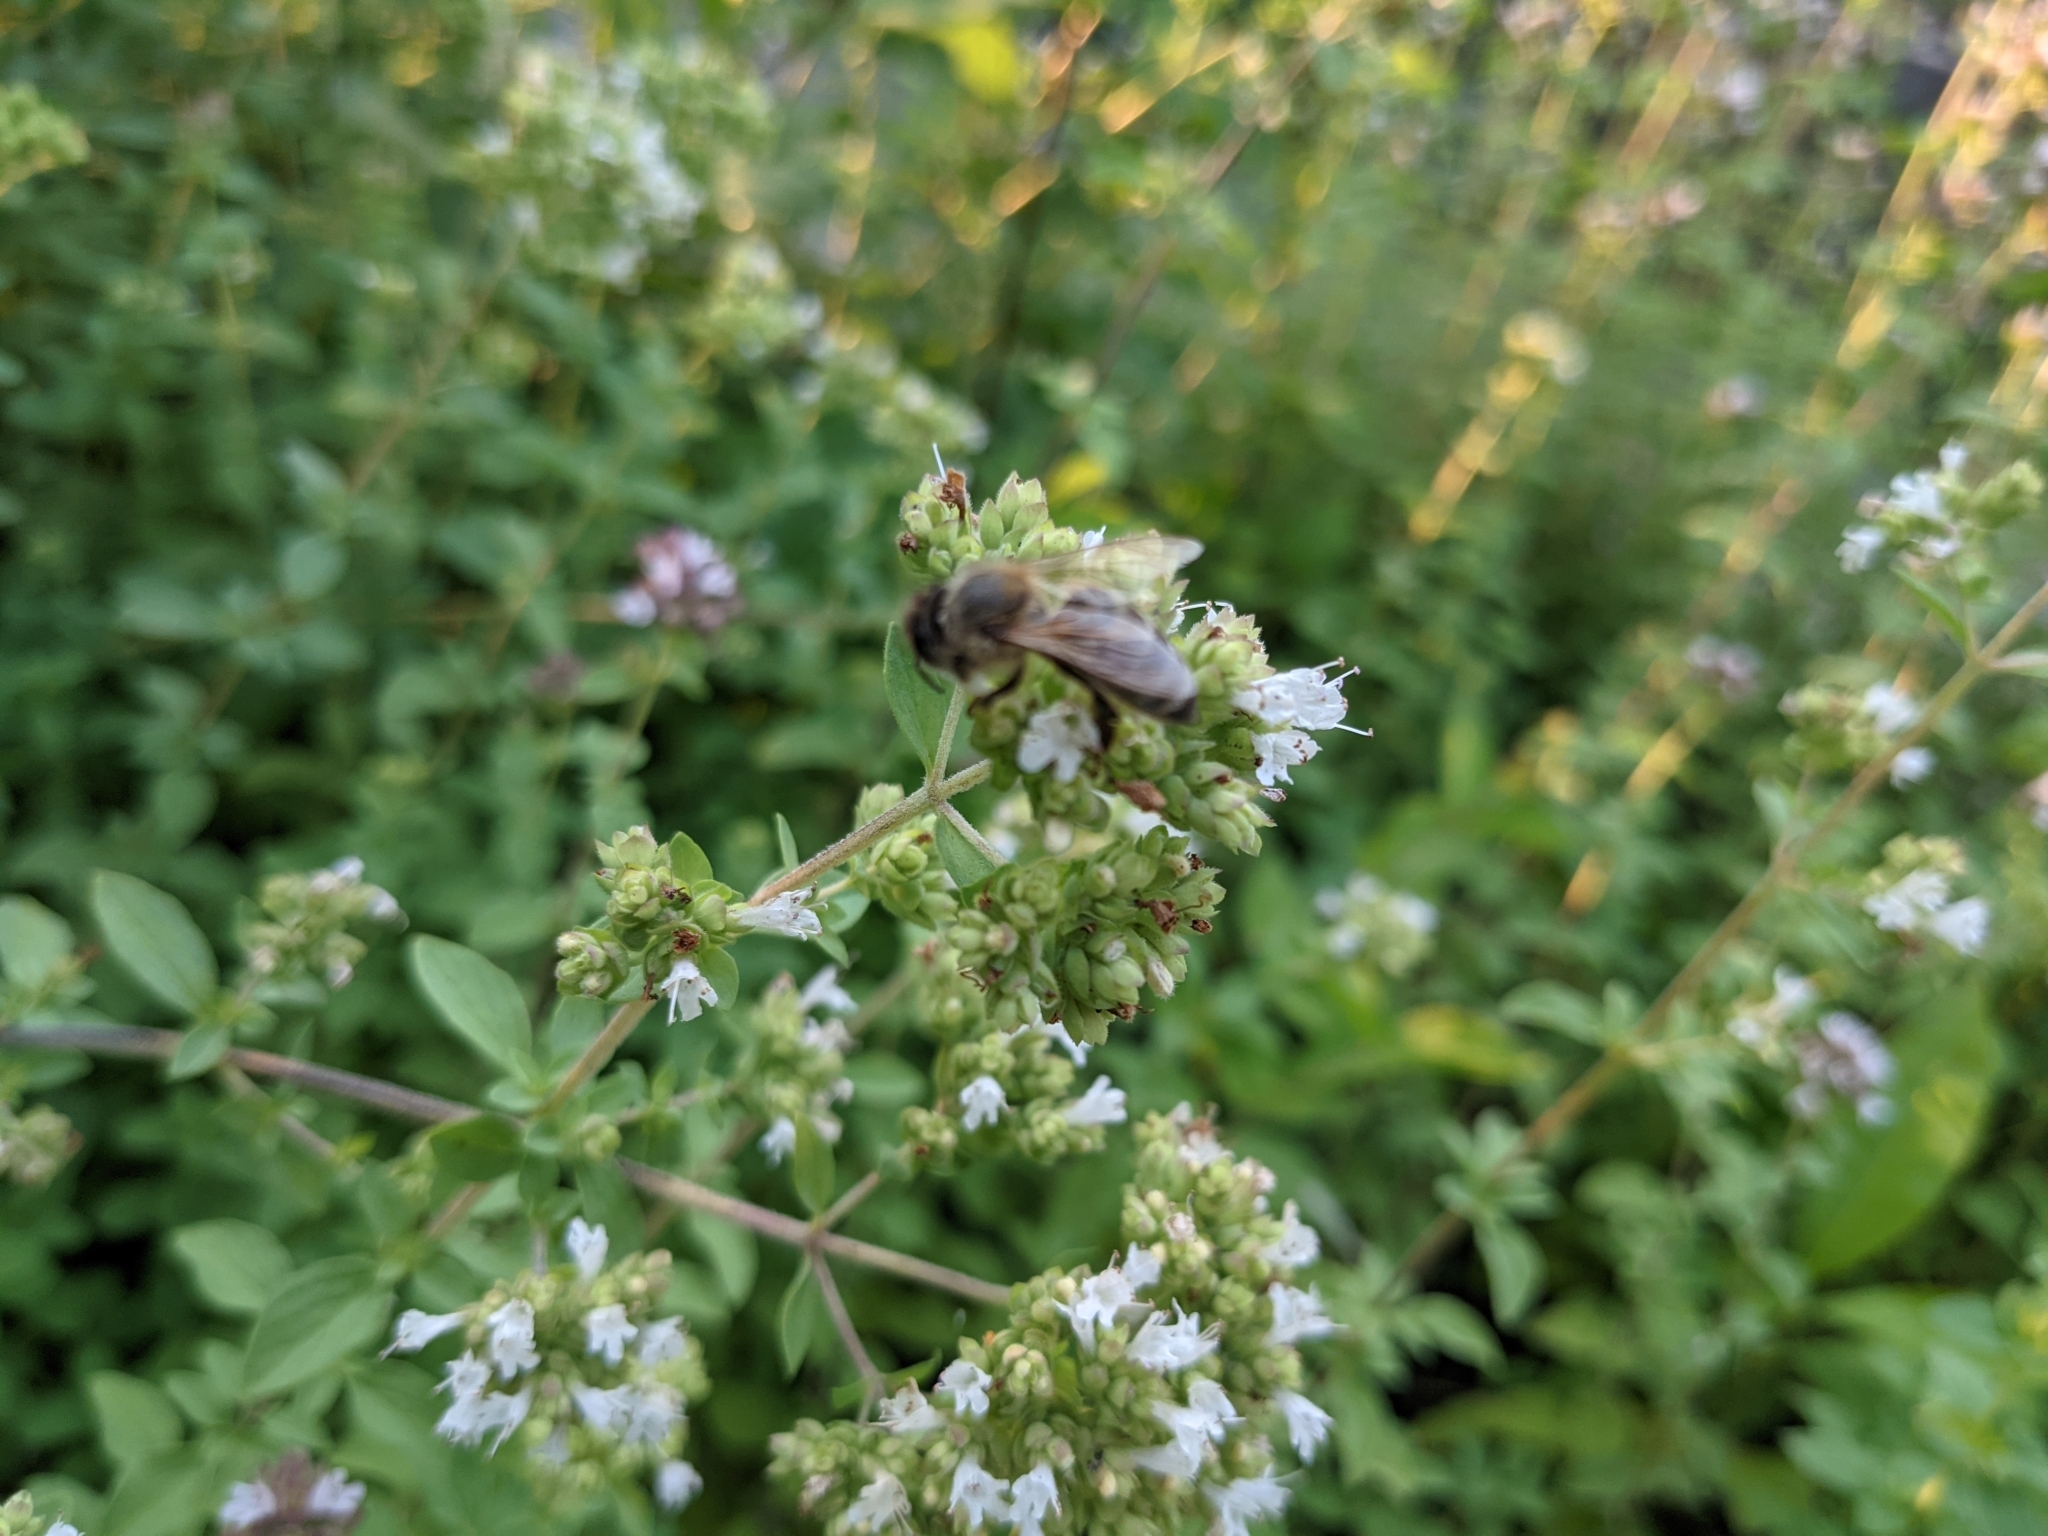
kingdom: Animalia
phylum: Arthropoda
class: Insecta
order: Hymenoptera
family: Apidae
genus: Apis
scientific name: Apis mellifera
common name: Honey bee
